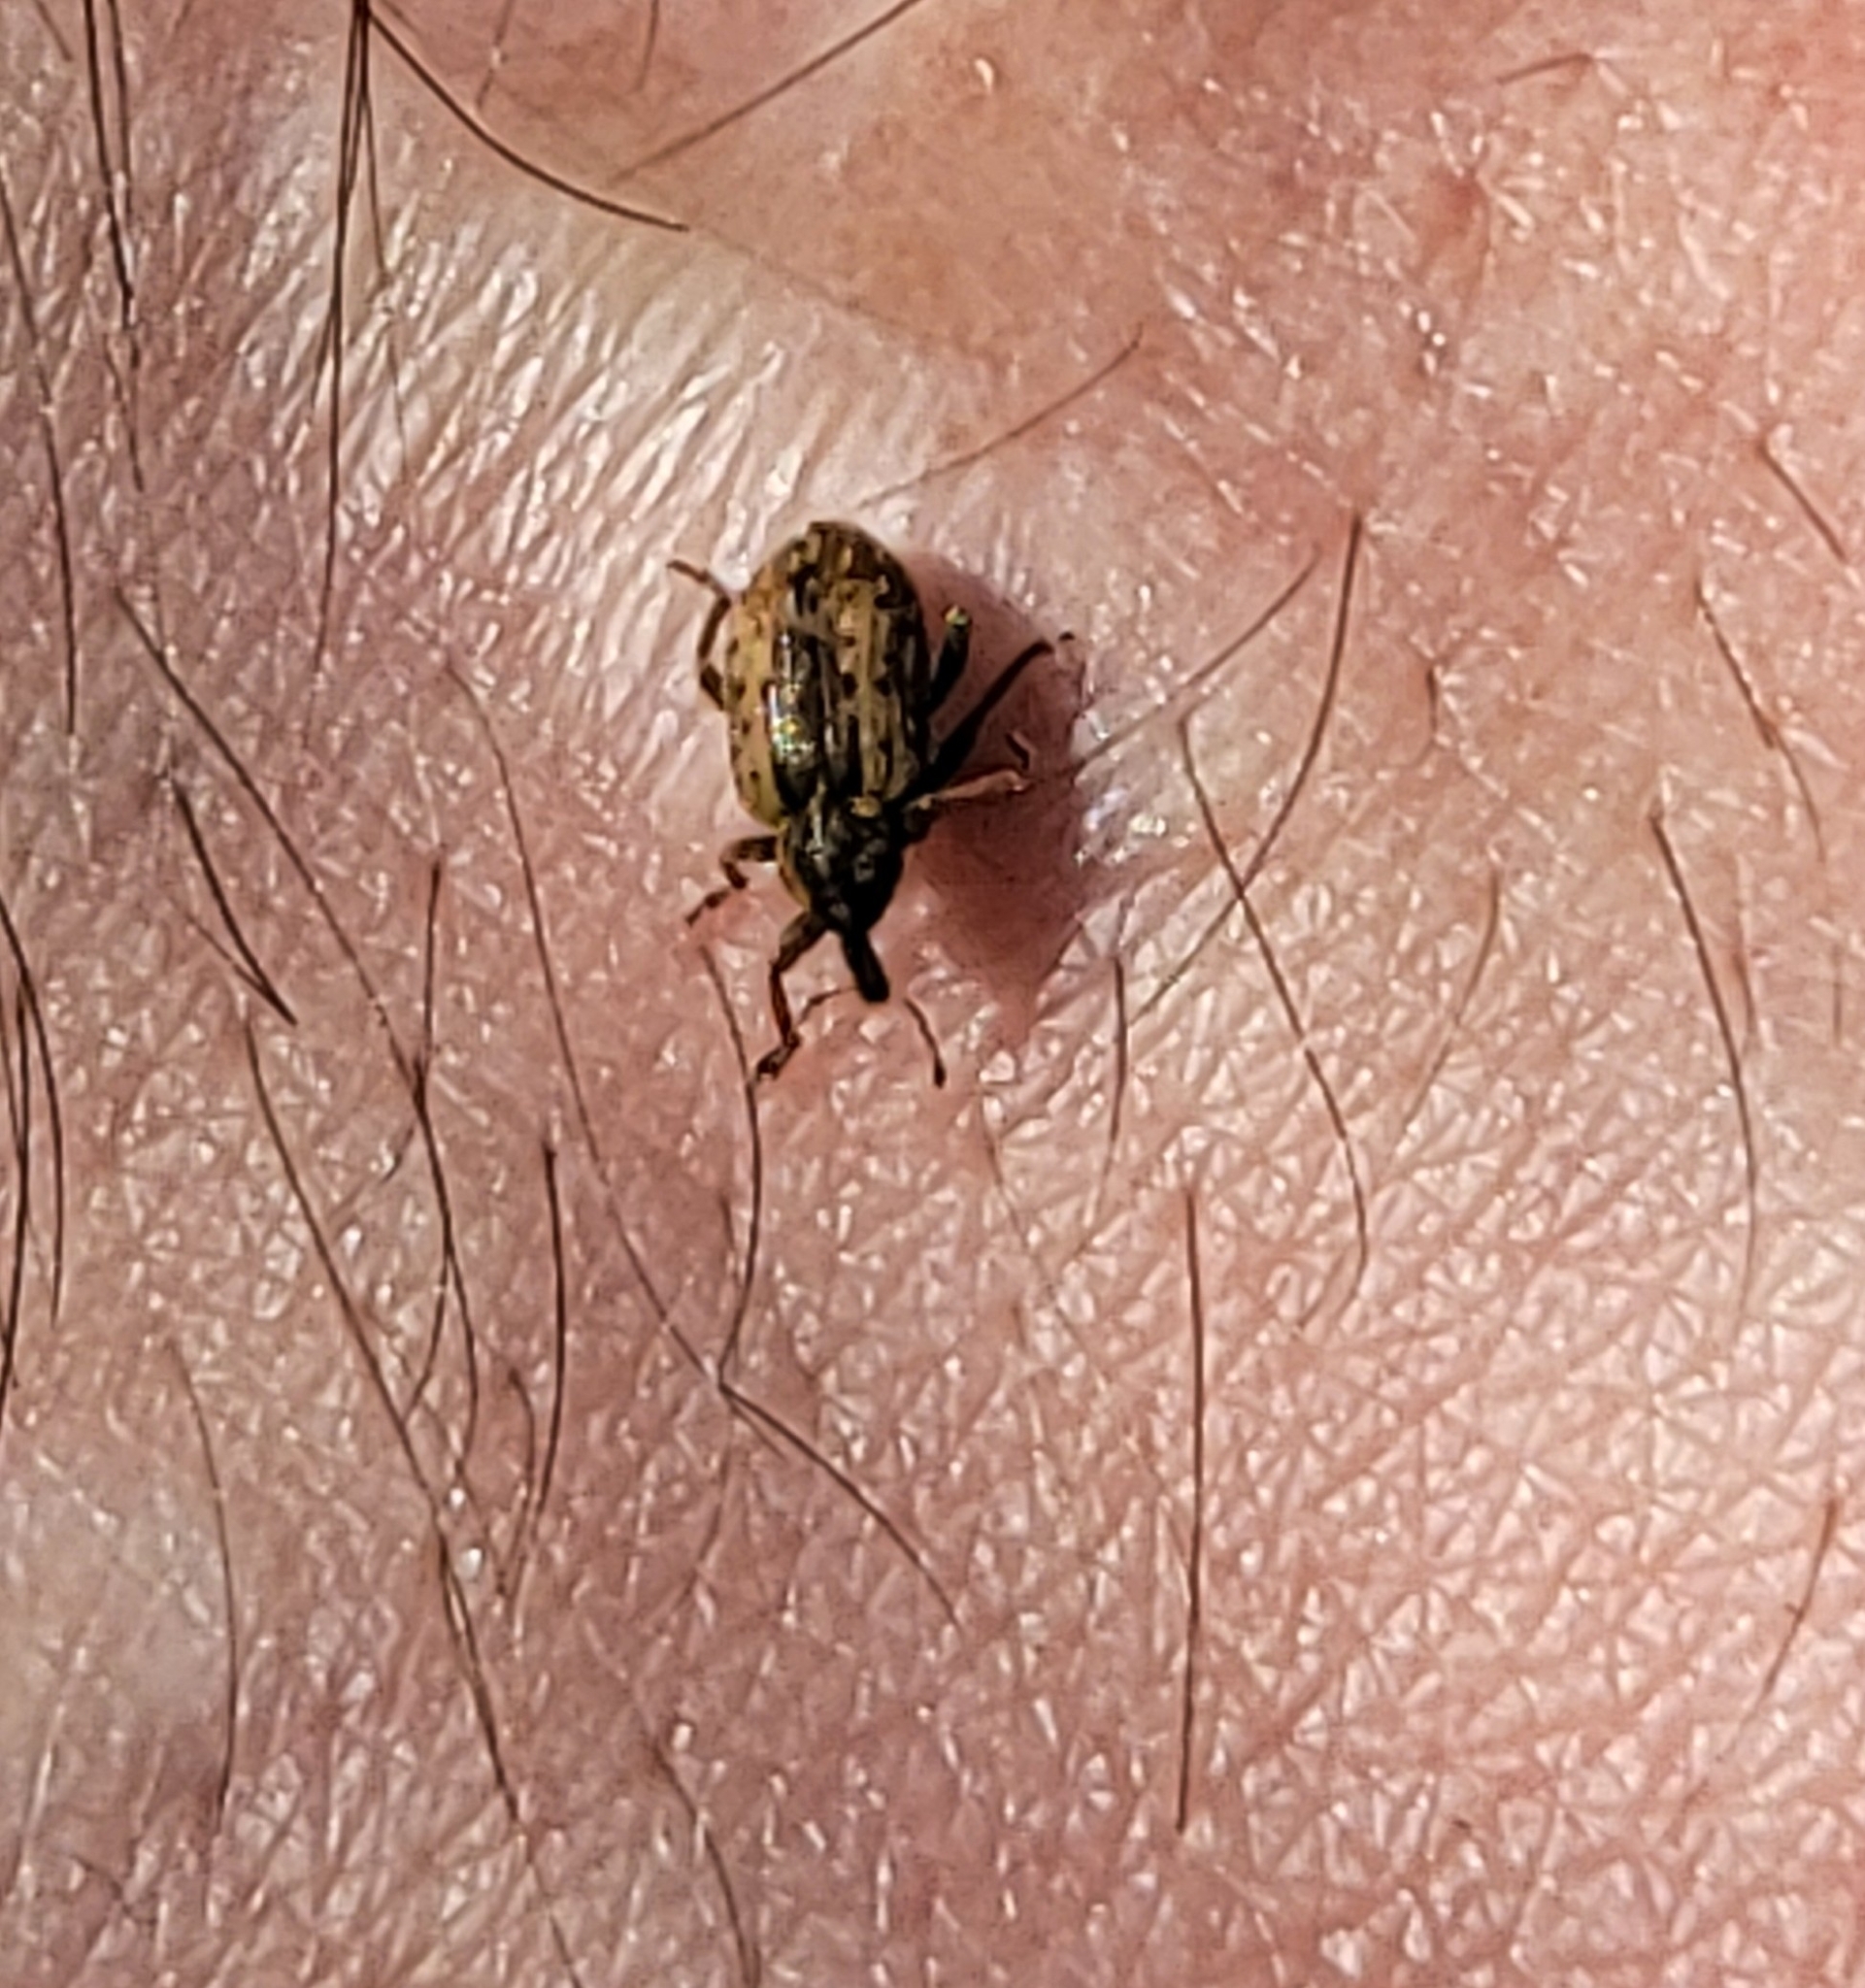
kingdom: Animalia
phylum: Arthropoda
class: Insecta
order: Coleoptera
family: Curculionidae
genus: Hypera
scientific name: Hypera postica
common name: Weevil
